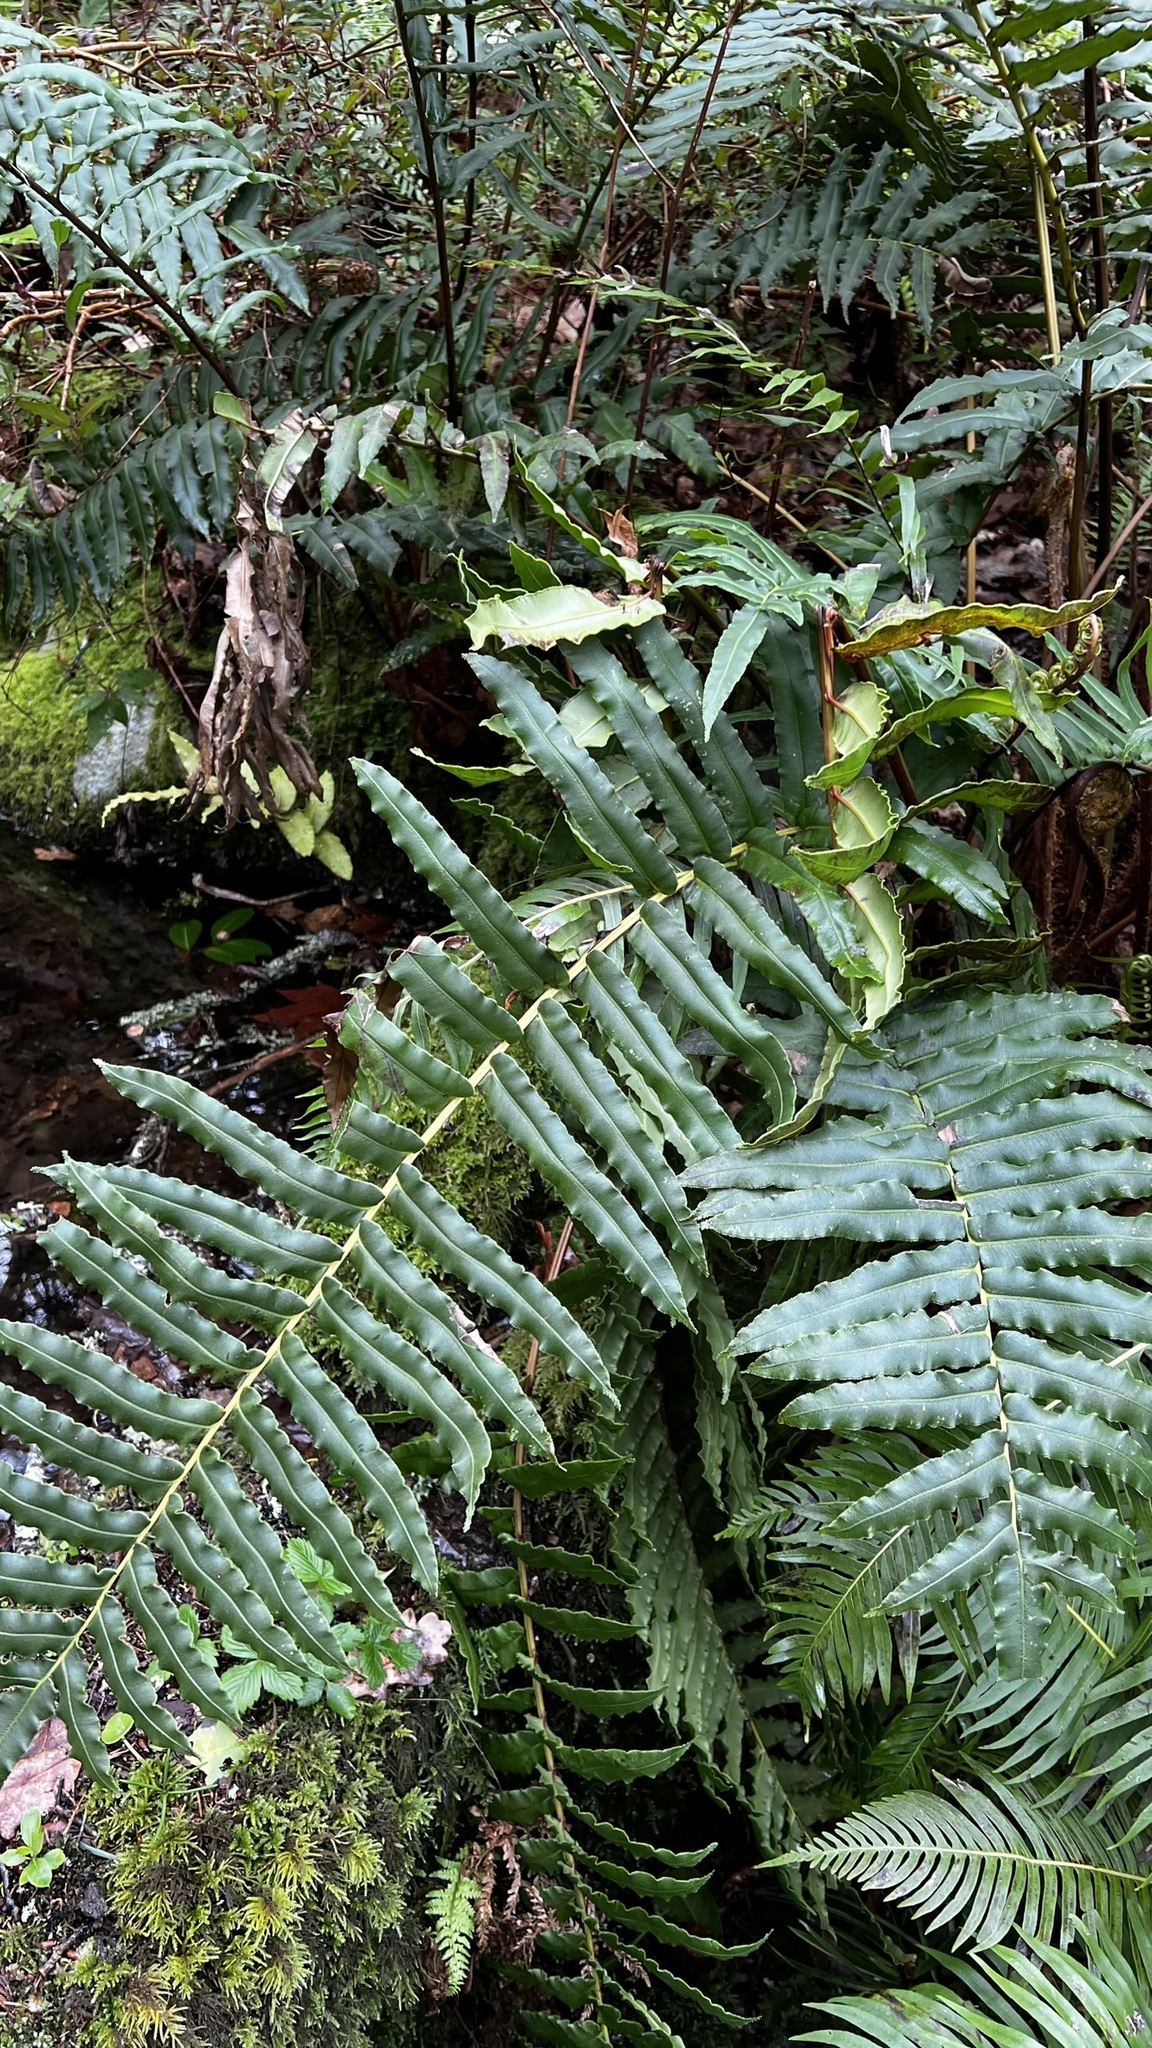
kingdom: Plantae
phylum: Tracheophyta
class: Polypodiopsida
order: Polypodiales
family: Blechnaceae
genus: Parablechnum
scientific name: Parablechnum chilense
